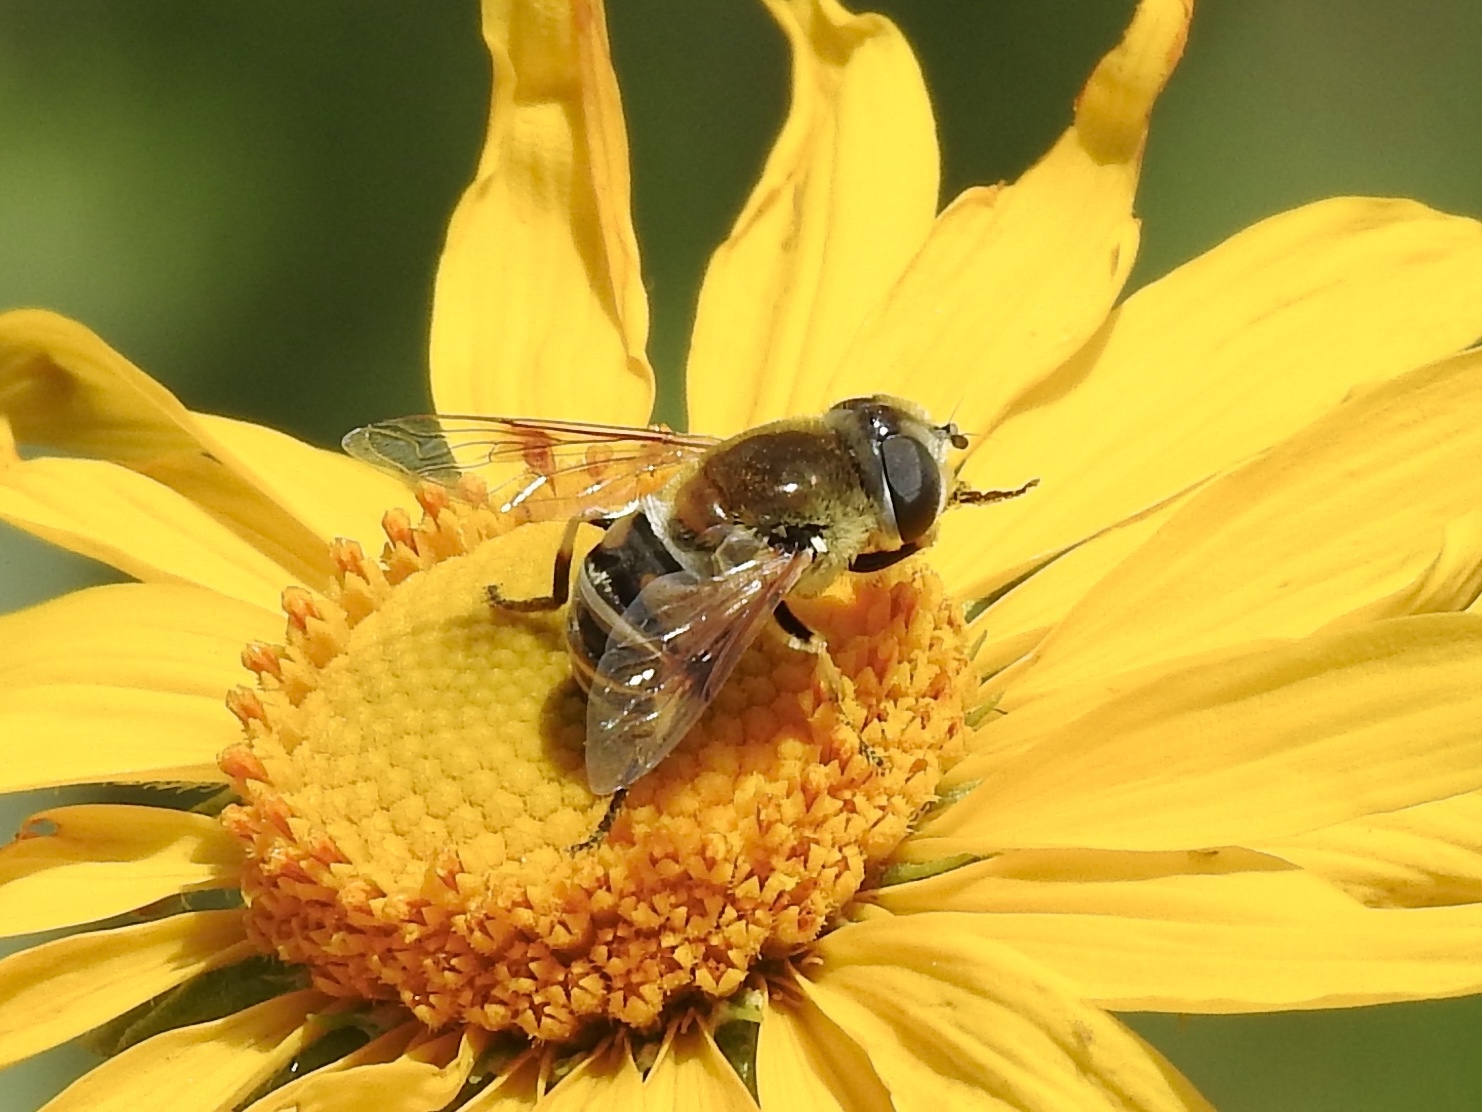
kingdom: Animalia
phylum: Arthropoda
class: Insecta
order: Diptera
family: Syrphidae
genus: Eristalis
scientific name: Eristalis stipator
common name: Yellow-shouldered drone fly
